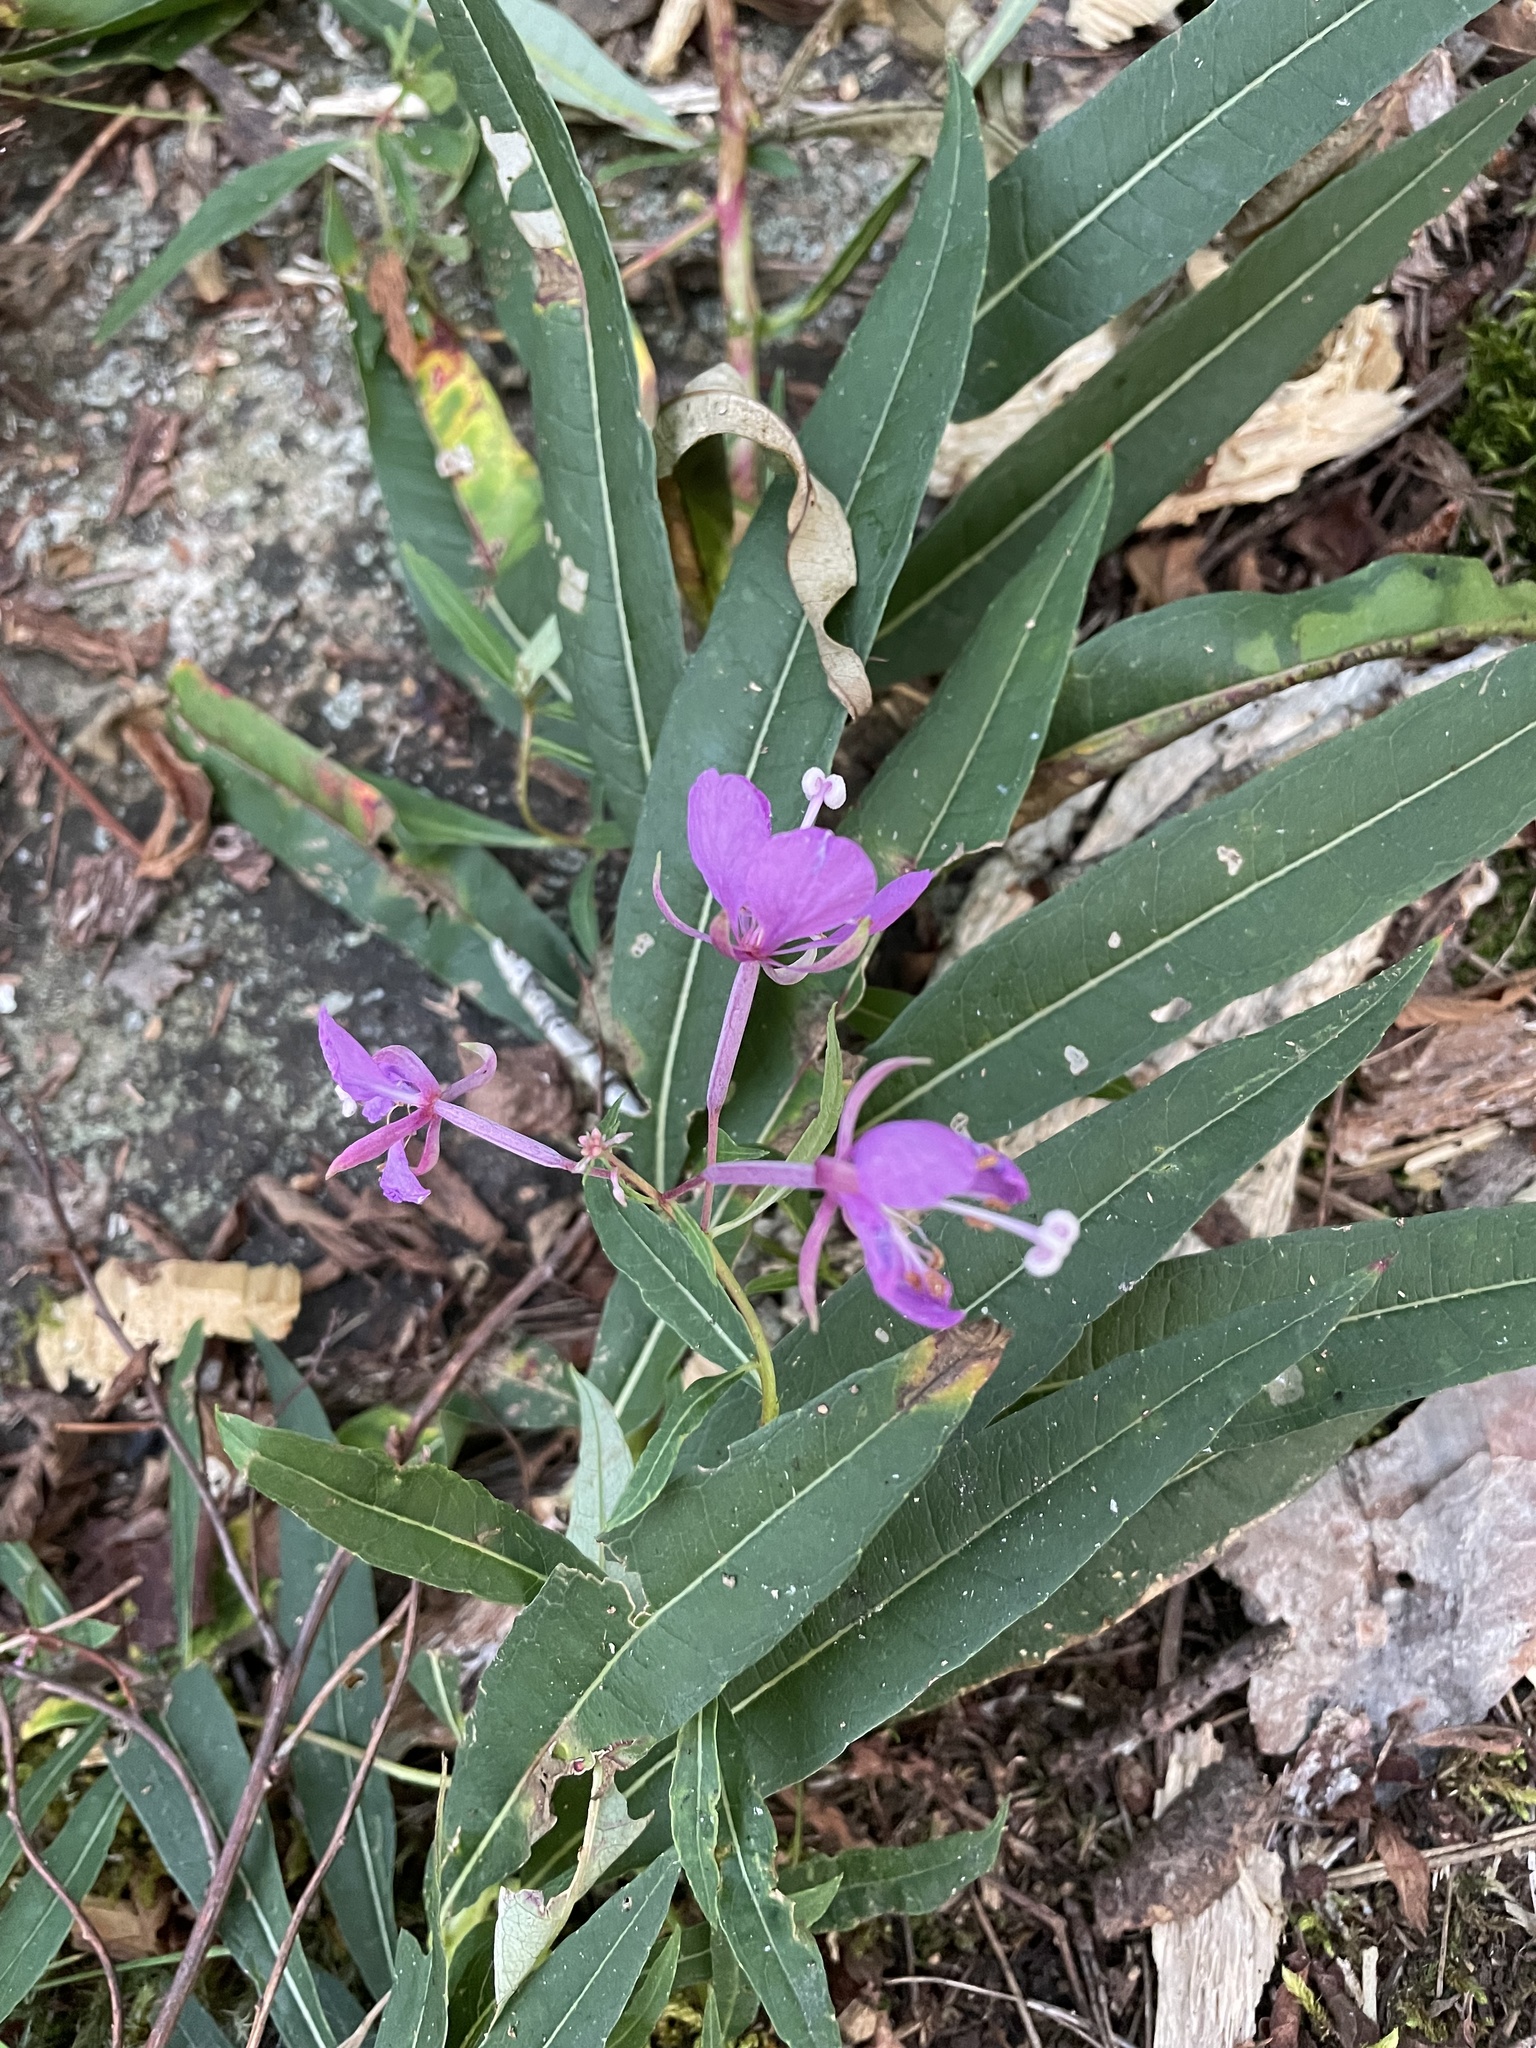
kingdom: Plantae
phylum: Tracheophyta
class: Magnoliopsida
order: Myrtales
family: Onagraceae
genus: Chamaenerion
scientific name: Chamaenerion angustifolium
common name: Fireweed
